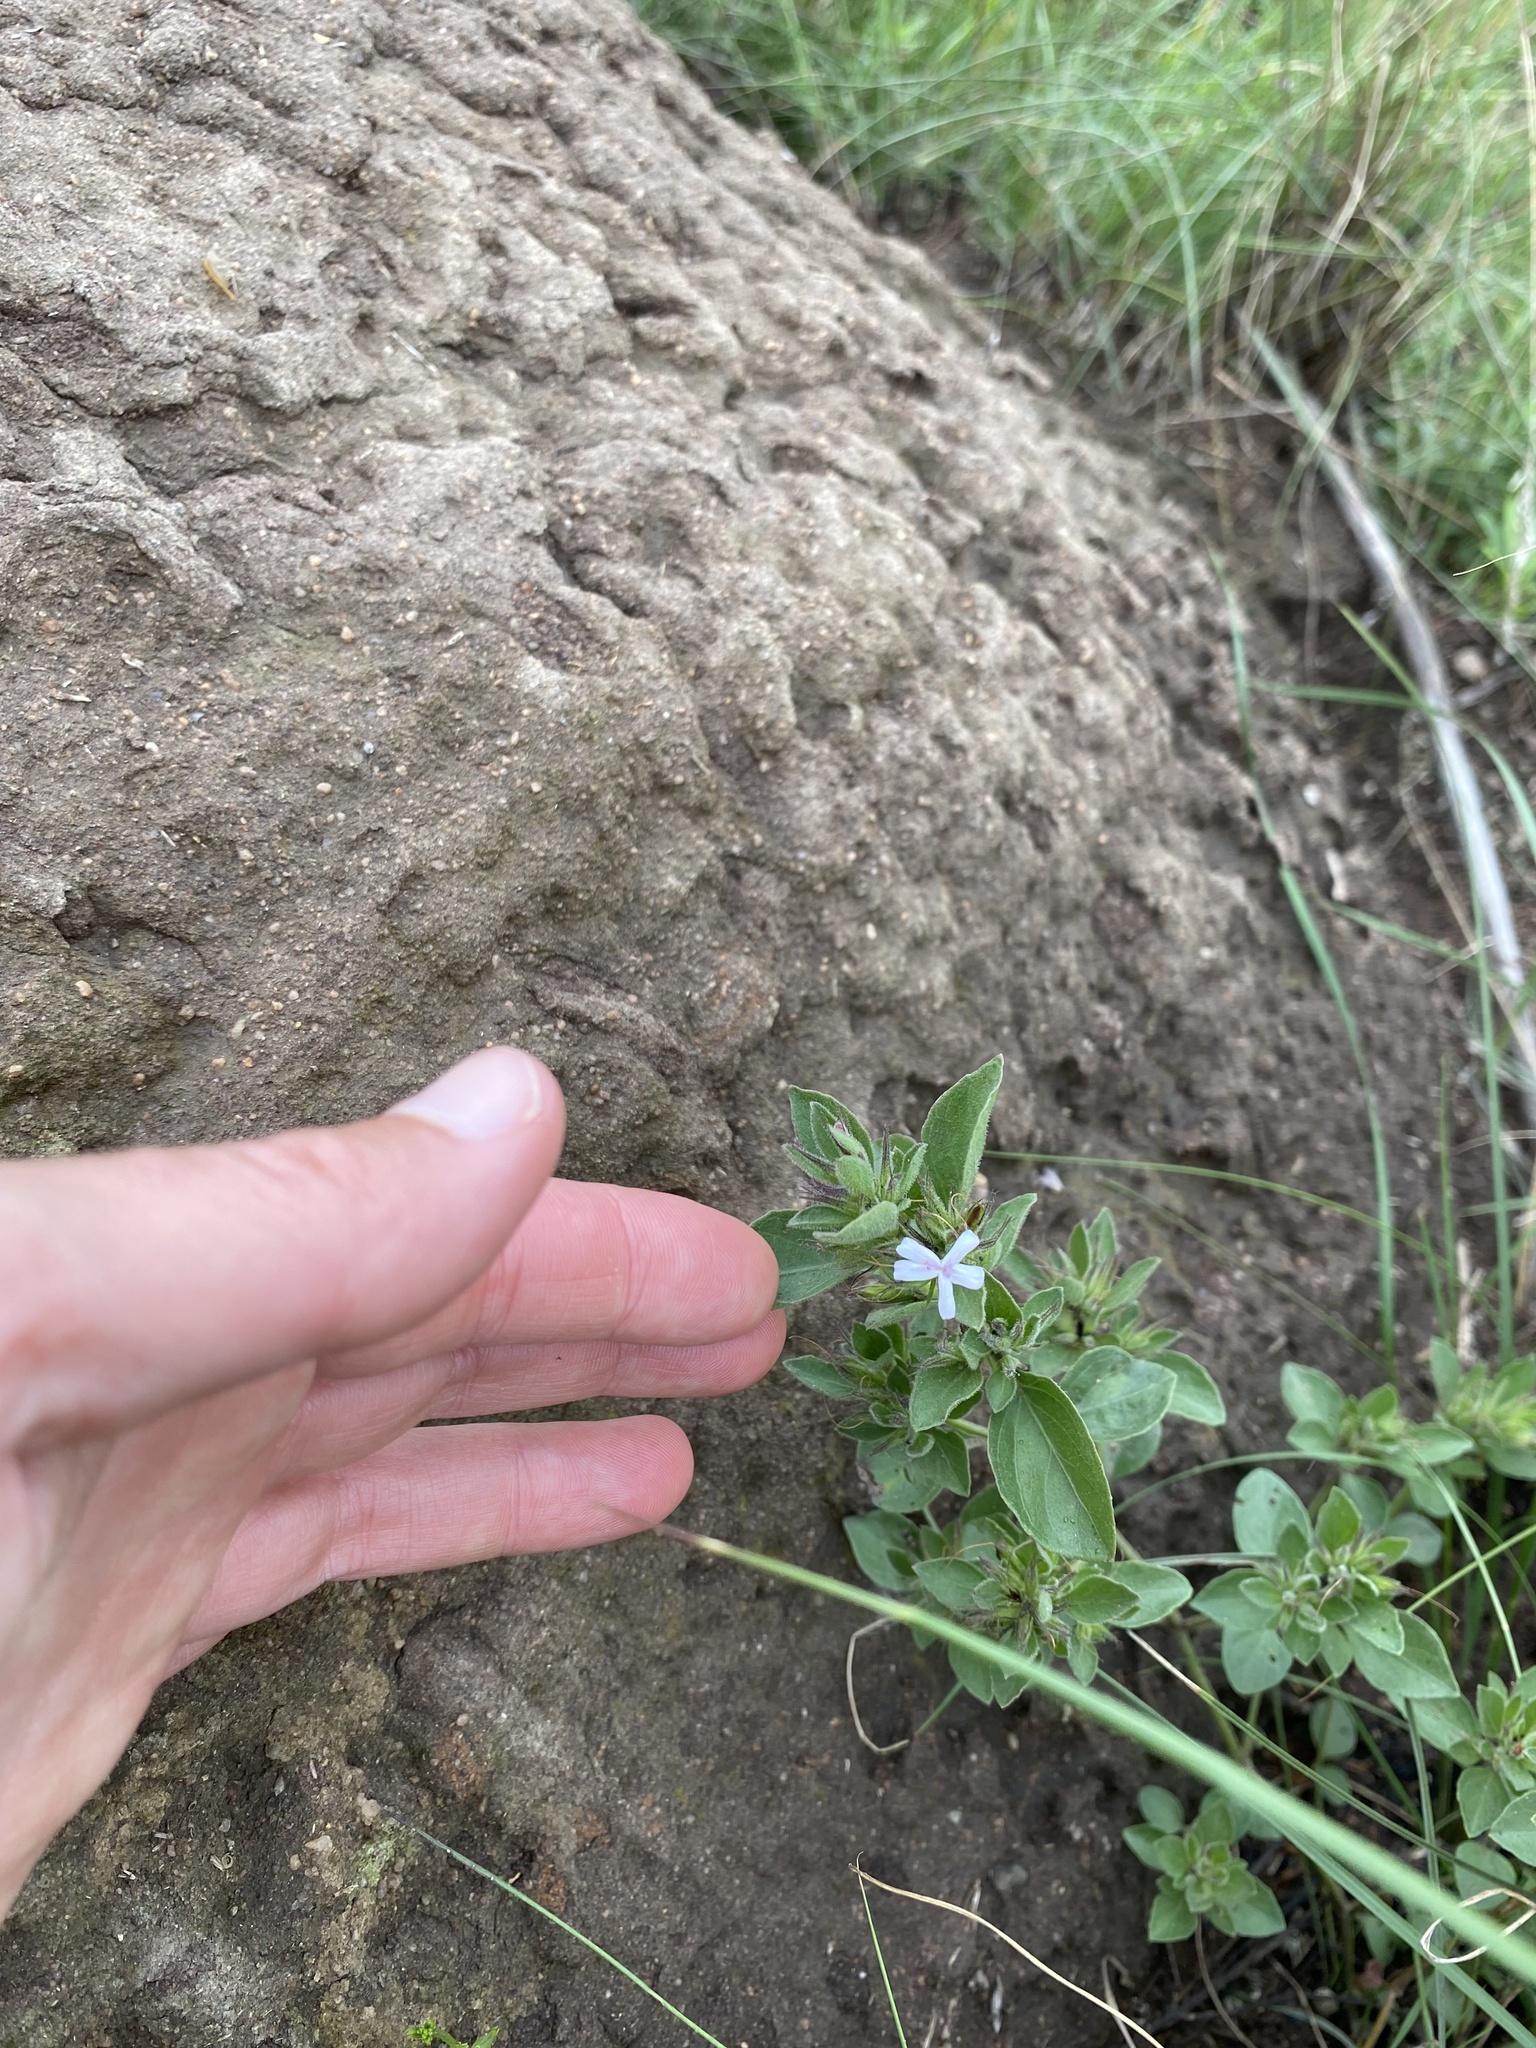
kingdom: Plantae
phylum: Tracheophyta
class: Magnoliopsida
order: Lamiales
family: Acanthaceae
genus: Dyschoriste
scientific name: Dyschoriste setigera
